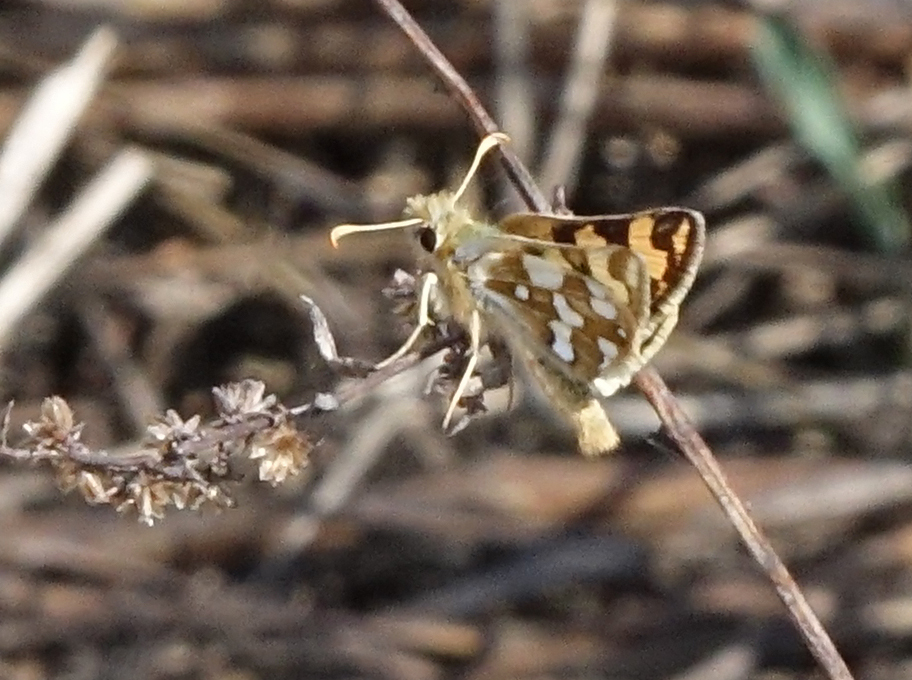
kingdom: Animalia
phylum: Arthropoda
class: Insecta
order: Lepidoptera
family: Hesperiidae
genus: Carterocephalus
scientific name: Carterocephalus argyrostigma
